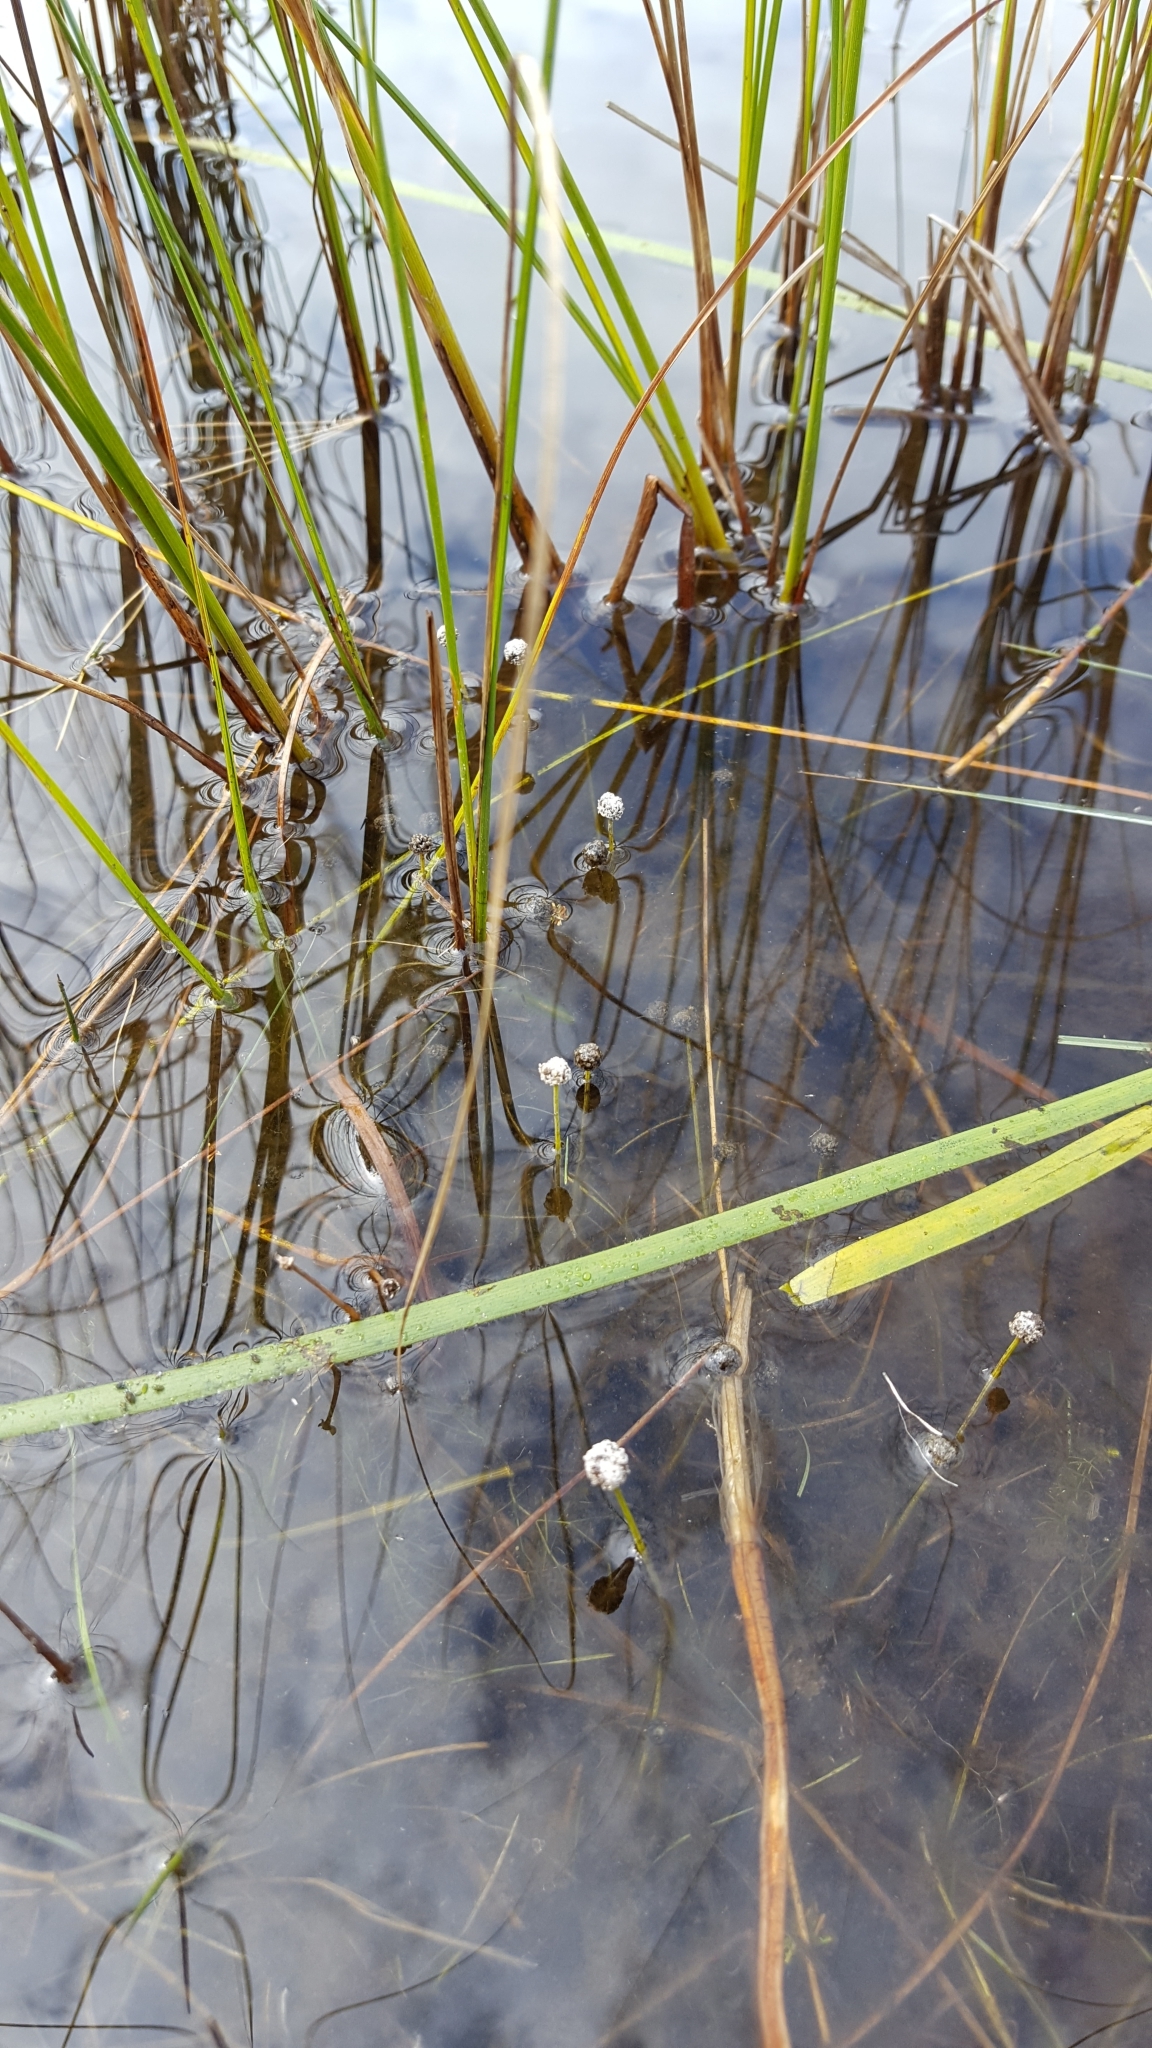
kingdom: Plantae
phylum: Tracheophyta
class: Liliopsida
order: Poales
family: Eriocaulaceae
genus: Eriocaulon
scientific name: Eriocaulon aquaticum
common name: Pipewort
